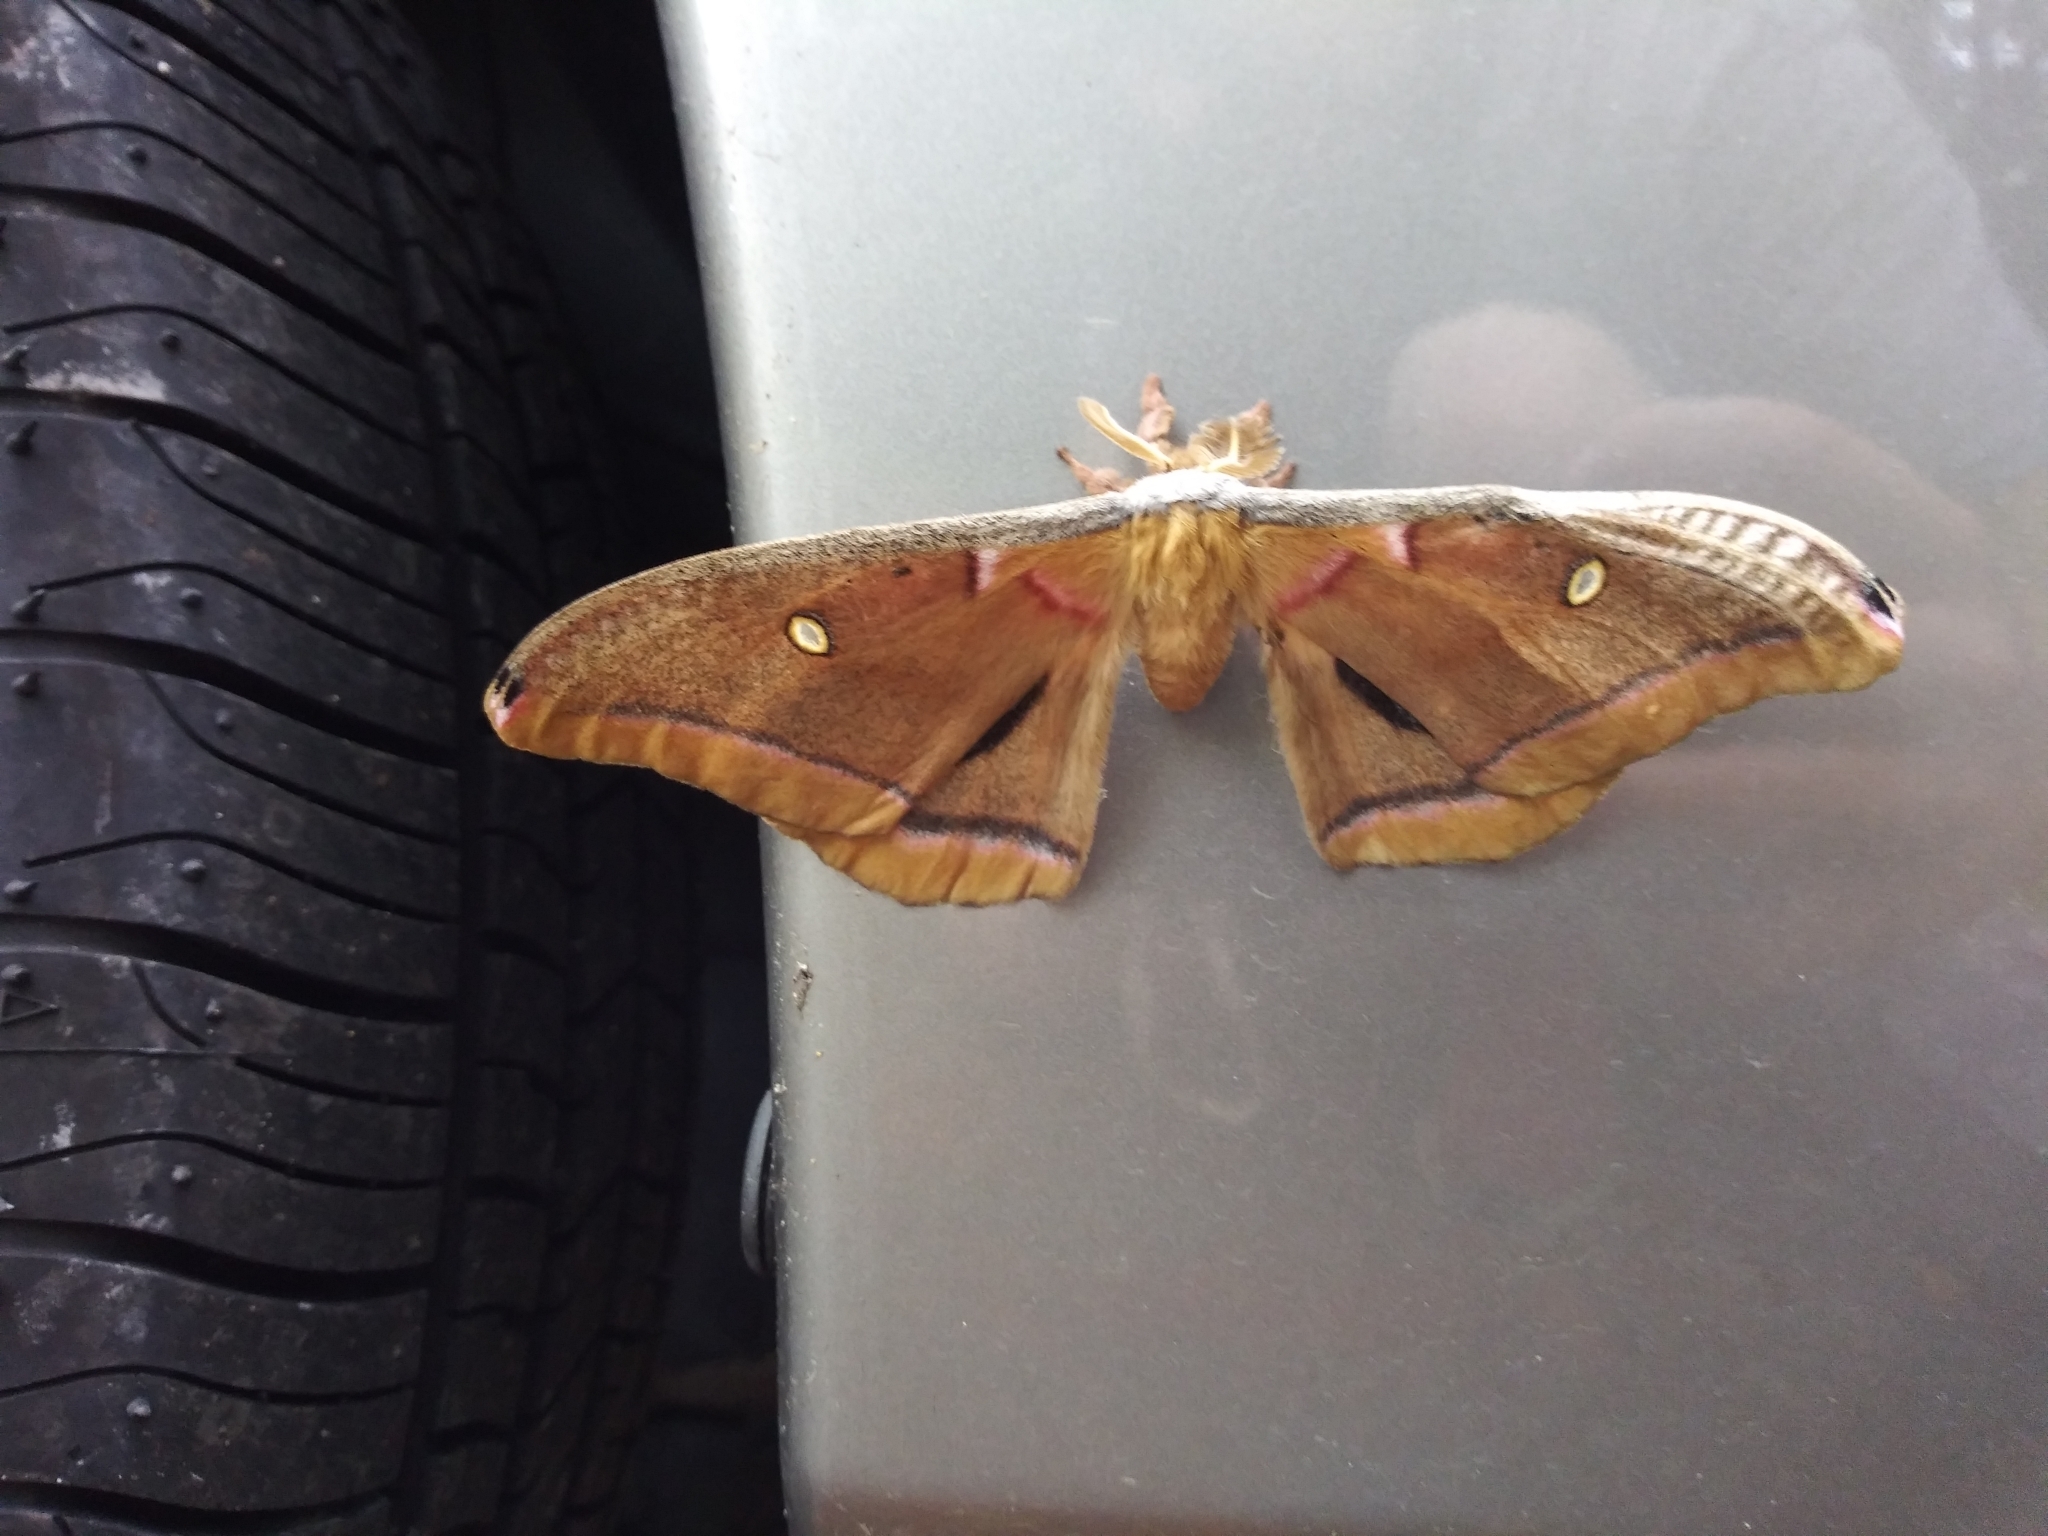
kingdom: Animalia
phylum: Arthropoda
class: Insecta
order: Lepidoptera
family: Saturniidae
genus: Antheraea
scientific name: Antheraea polyphemus
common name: Polyphemus moth
